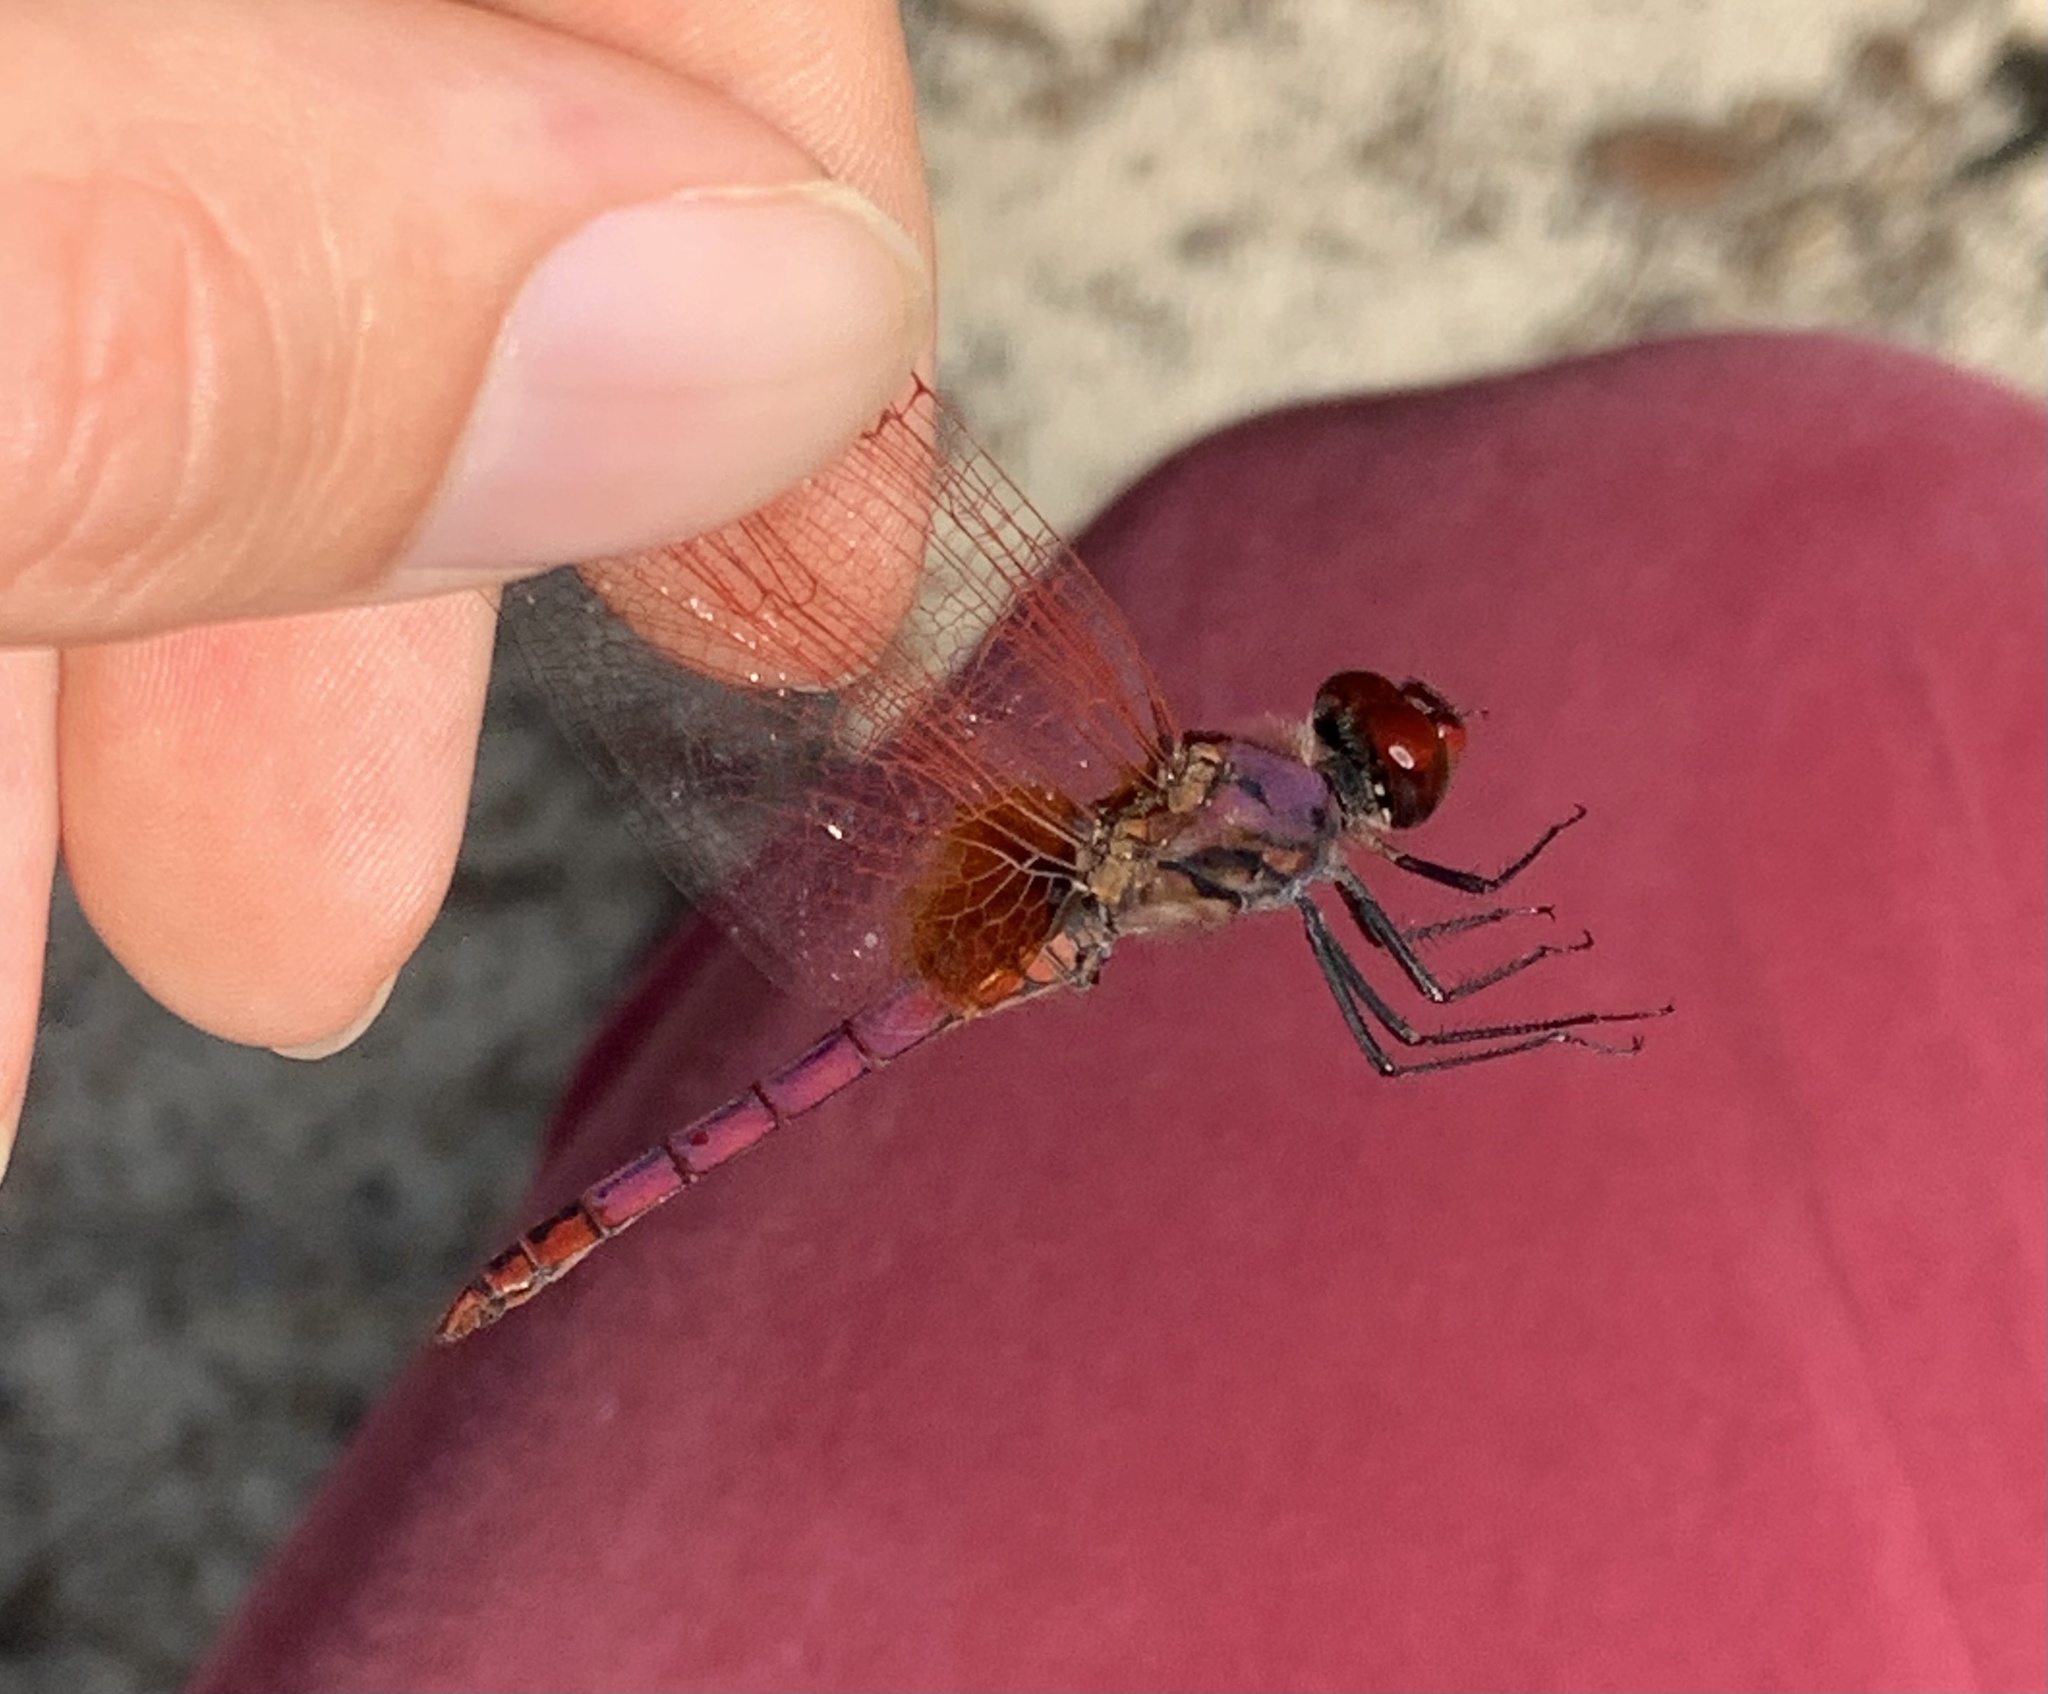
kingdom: Animalia
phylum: Arthropoda
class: Insecta
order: Odonata
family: Libellulidae
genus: Trithemis
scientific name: Trithemis annulata
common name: Violet dropwing
